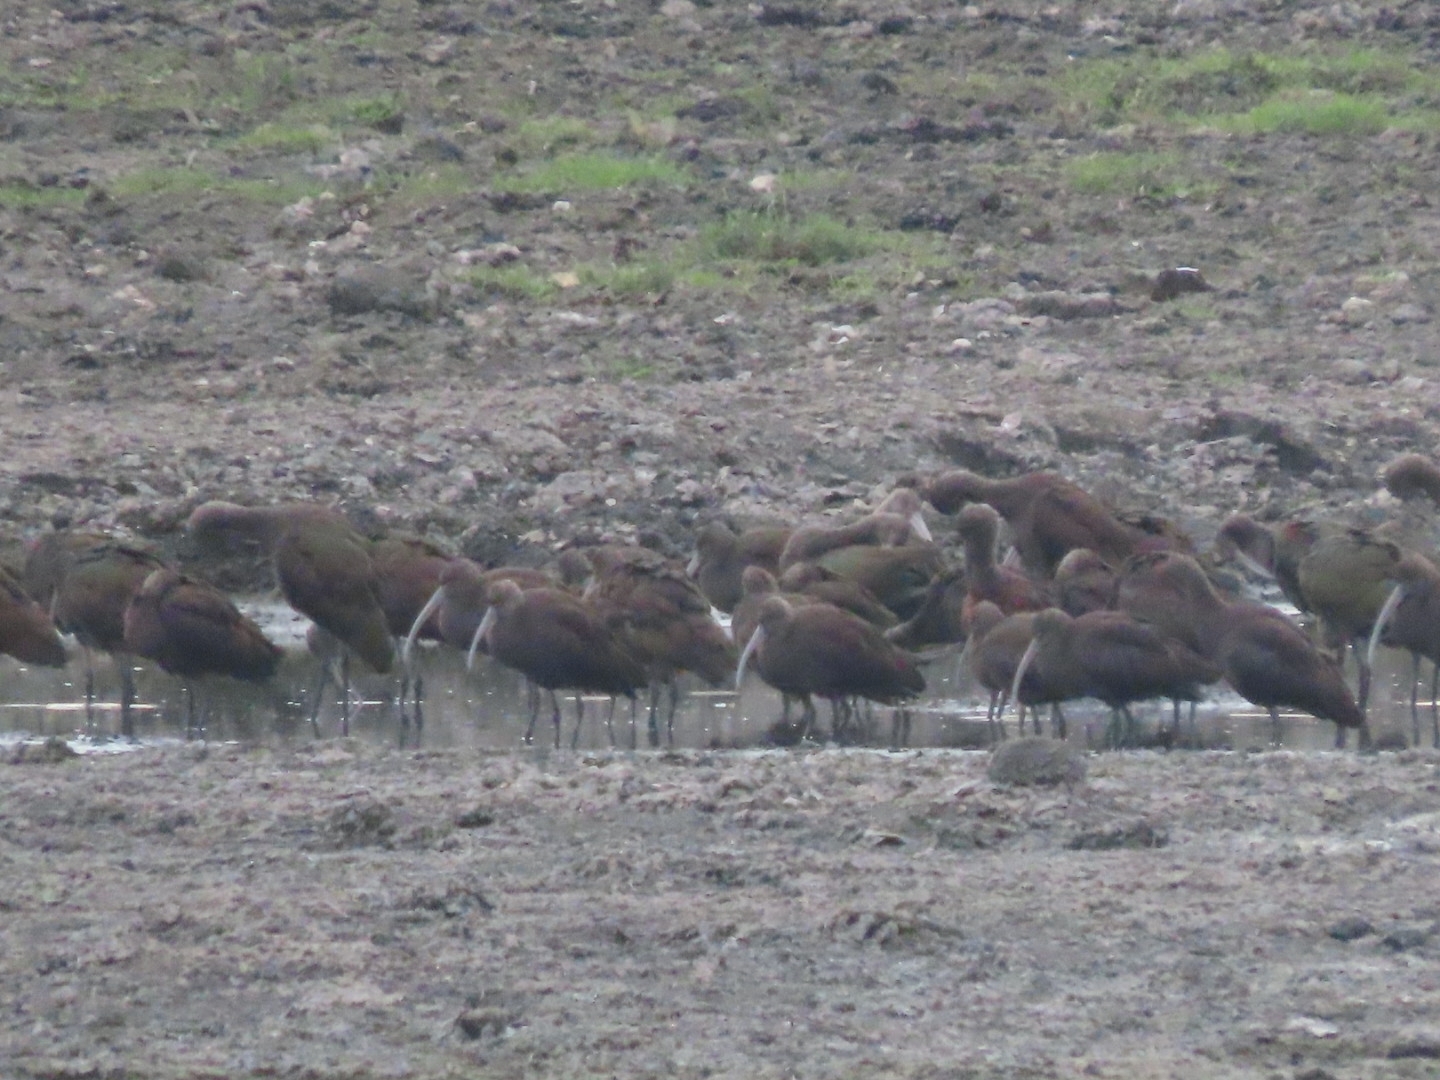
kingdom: Animalia
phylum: Chordata
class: Aves
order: Pelecaniformes
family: Threskiornithidae
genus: Plegadis
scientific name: Plegadis chihi
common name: White-faced ibis
